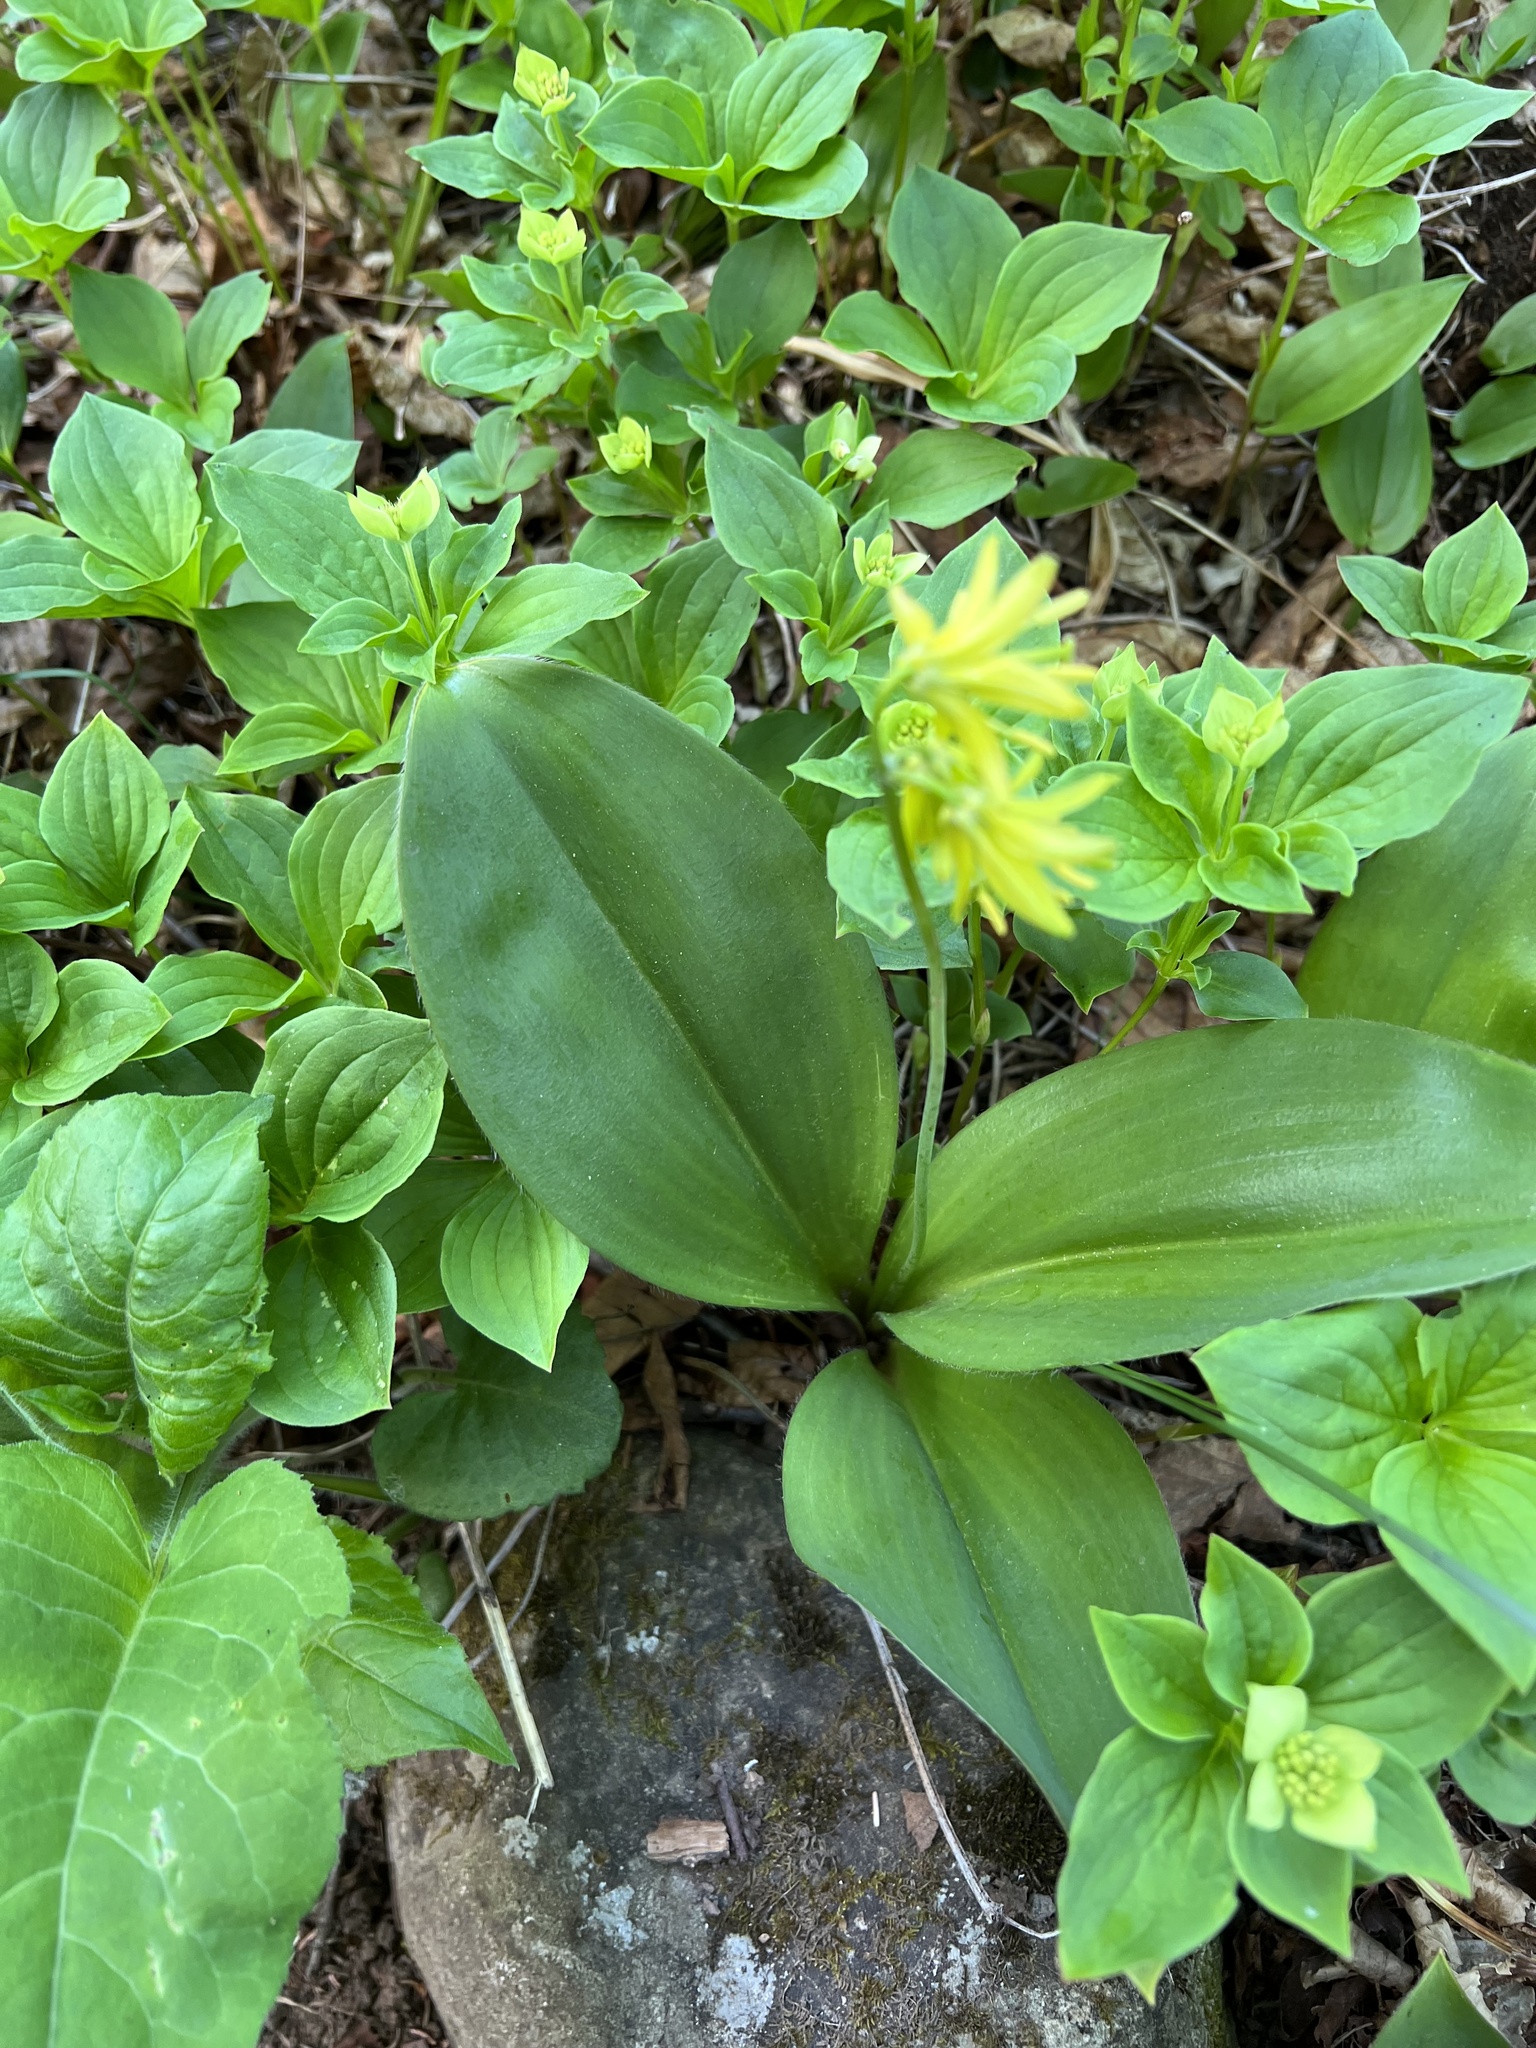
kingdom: Plantae
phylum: Tracheophyta
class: Liliopsida
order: Liliales
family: Liliaceae
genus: Clintonia
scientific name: Clintonia borealis
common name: Yellow clintonia
